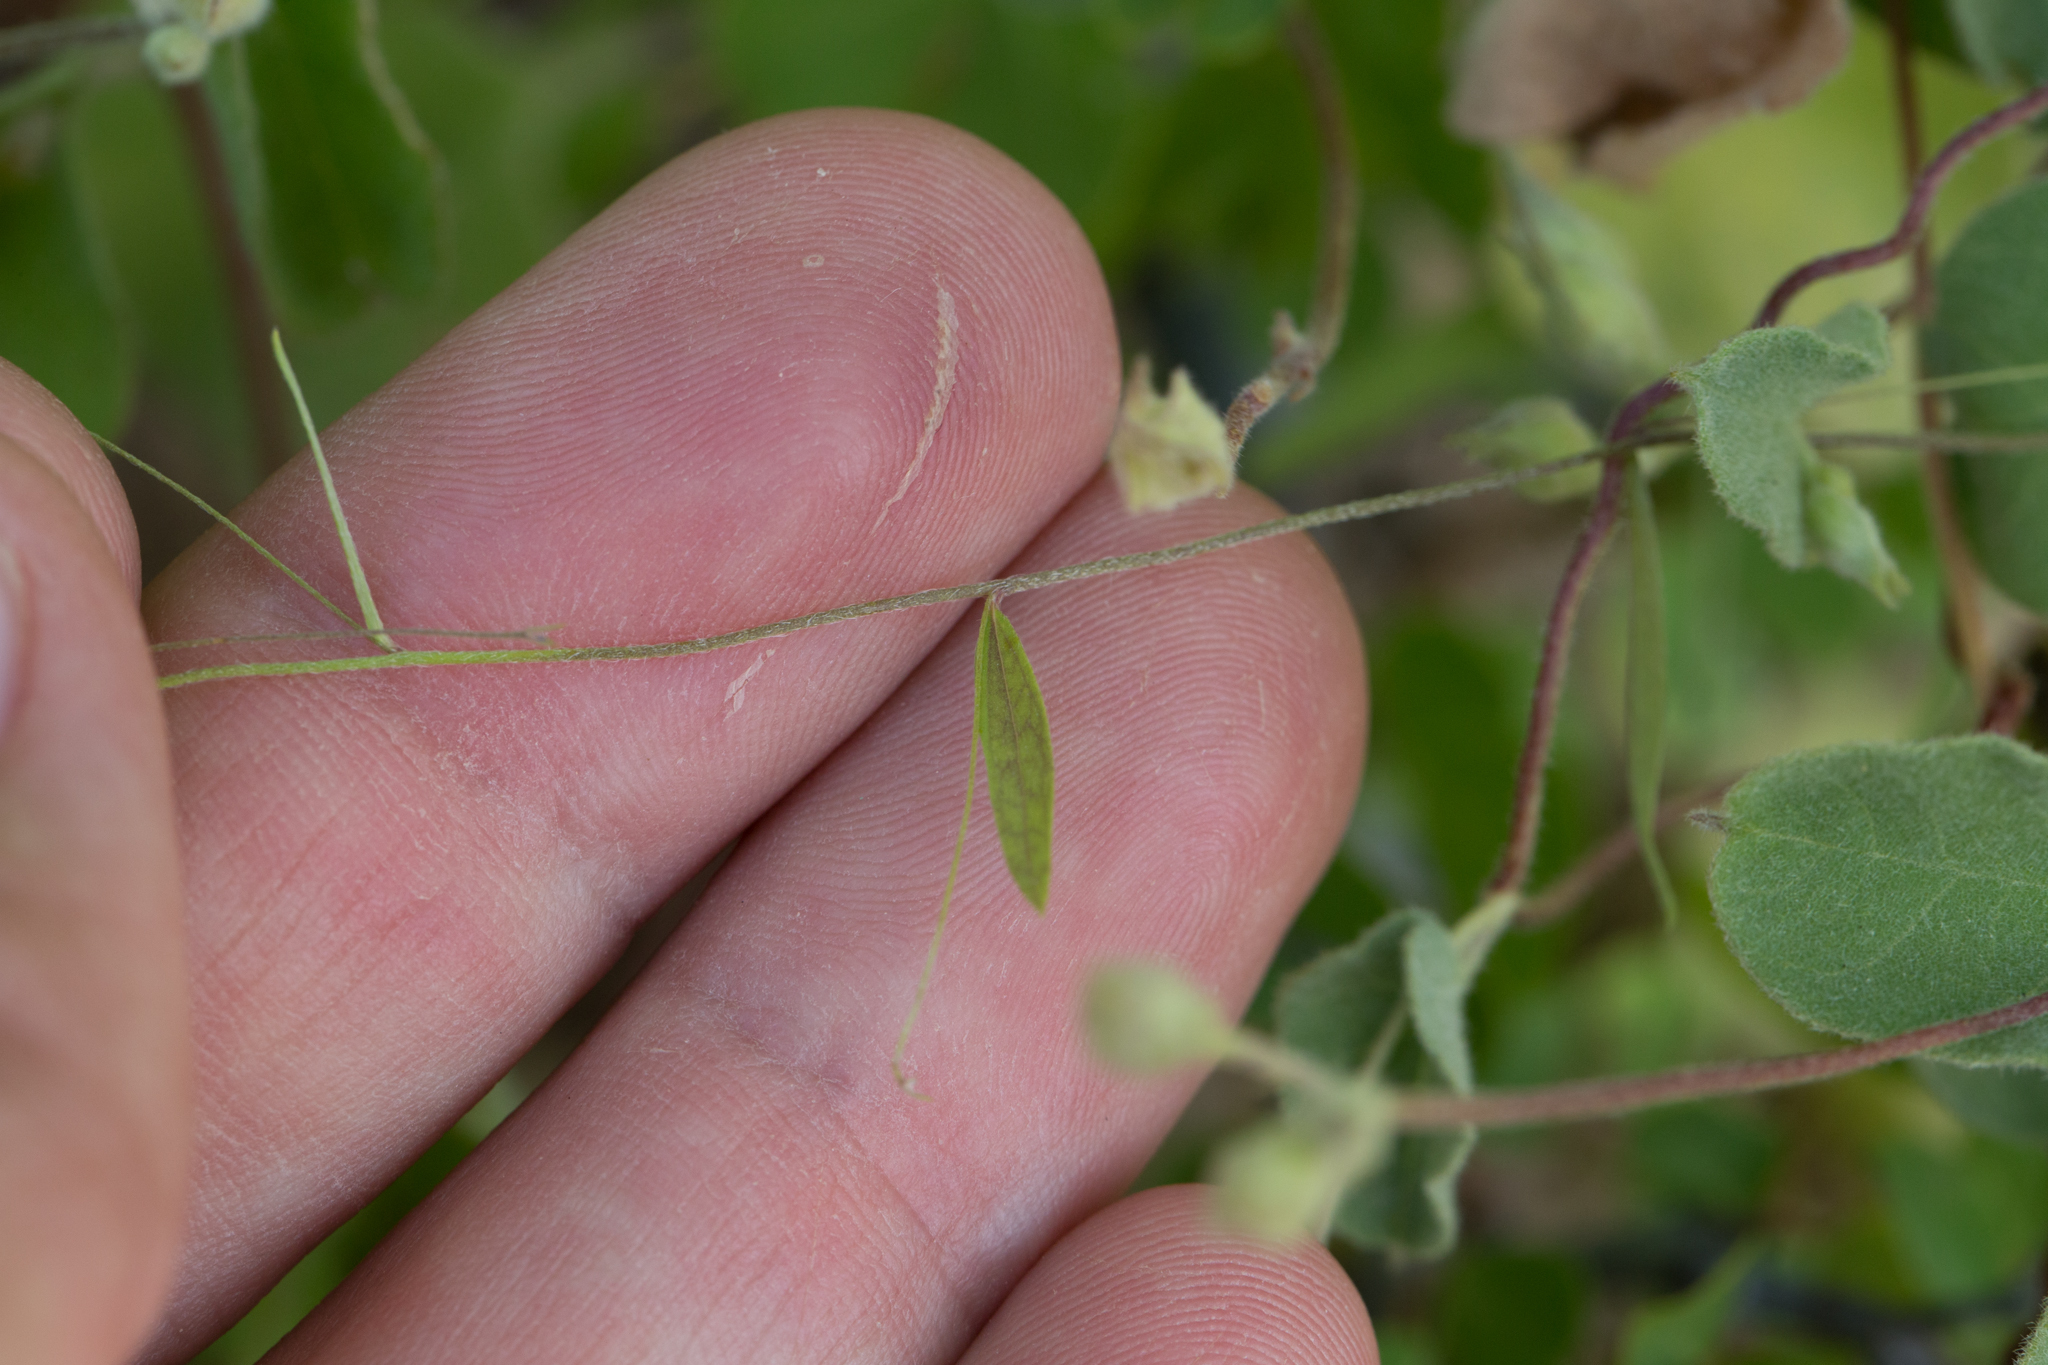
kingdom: Plantae
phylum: Tracheophyta
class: Magnoliopsida
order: Solanales
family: Convolvulaceae
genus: Evolvulus
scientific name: Evolvulus alsinoides
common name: Slender dwarf morning-glory
